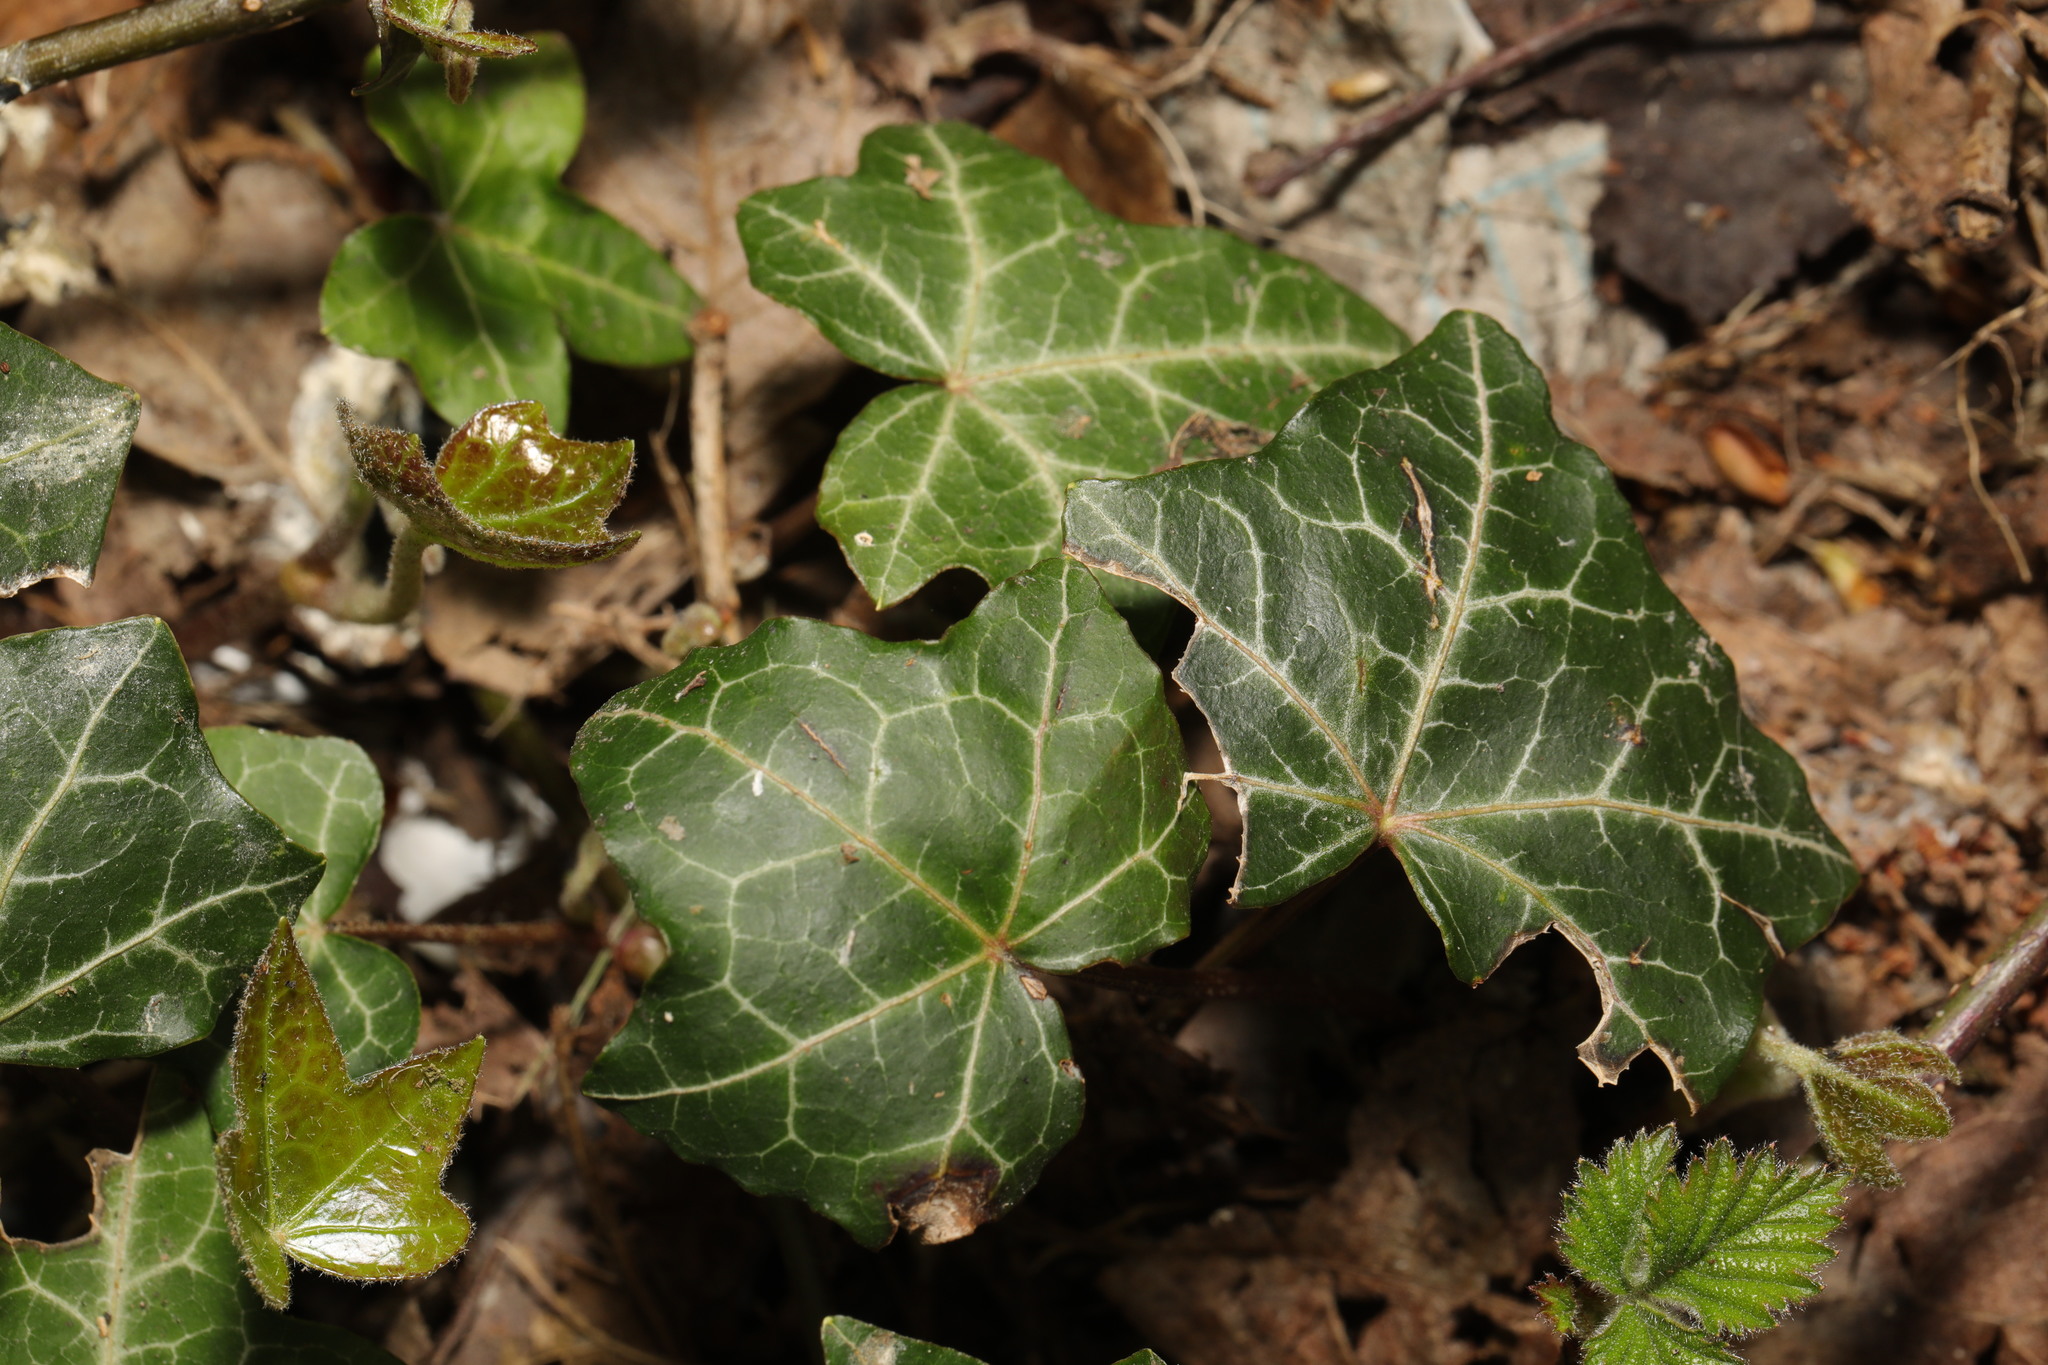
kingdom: Plantae
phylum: Tracheophyta
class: Magnoliopsida
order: Apiales
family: Araliaceae
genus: Hedera
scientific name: Hedera helix
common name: Ivy
